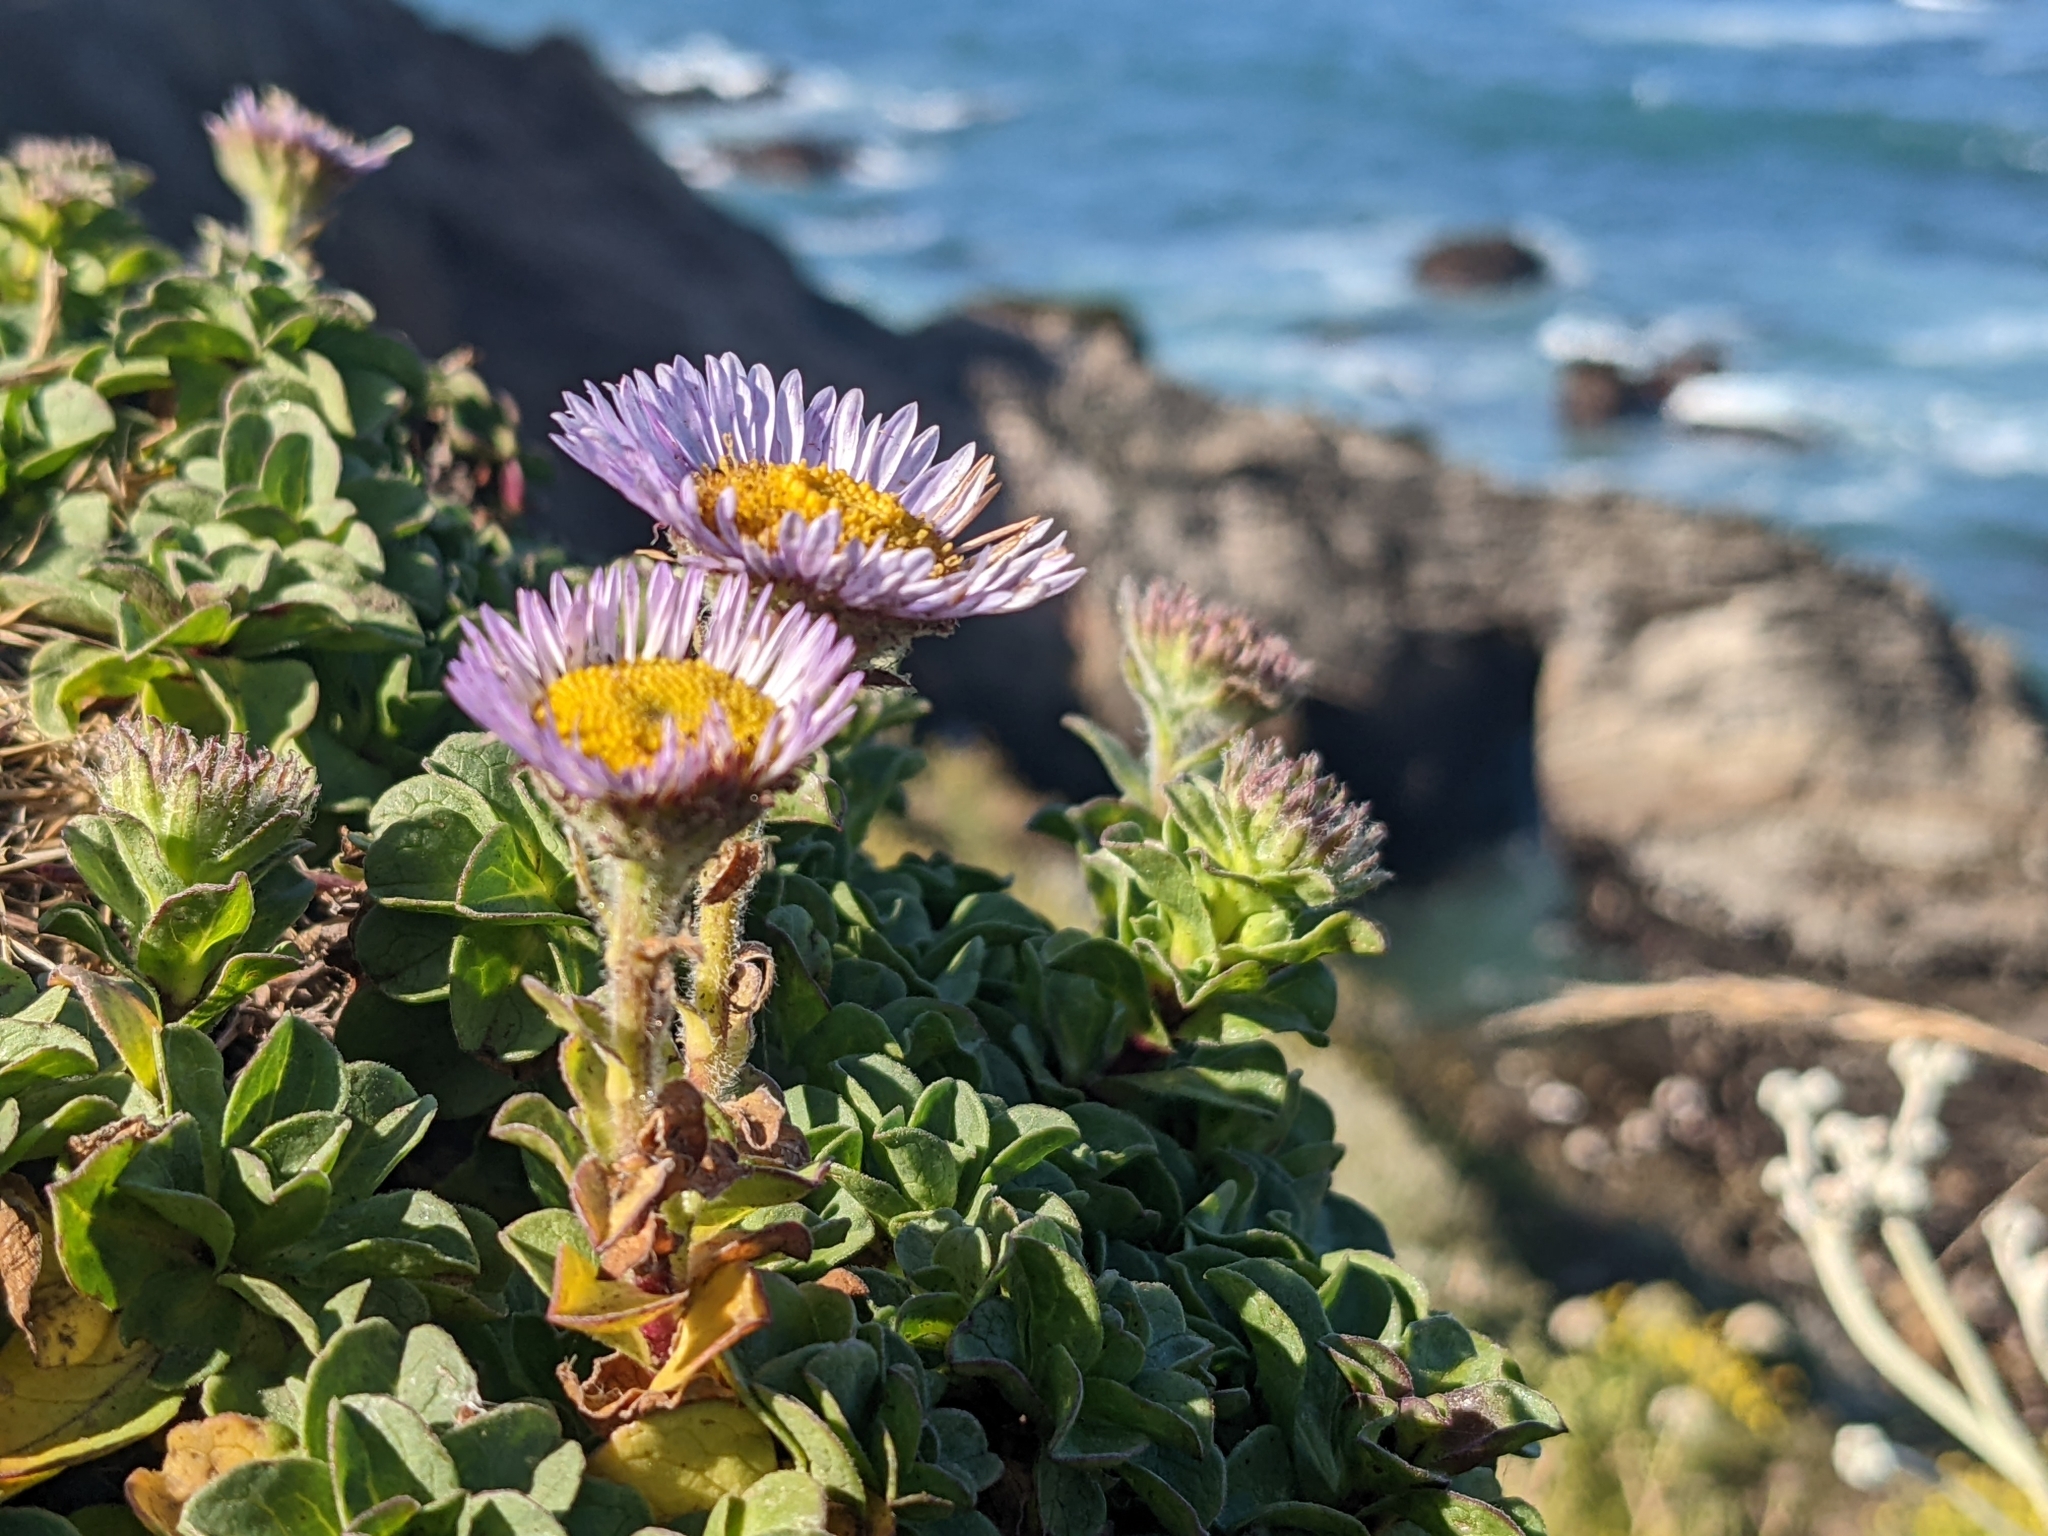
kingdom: Plantae
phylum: Tracheophyta
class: Magnoliopsida
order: Asterales
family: Asteraceae
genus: Erigeron
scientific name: Erigeron glaucus
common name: Seaside daisy
